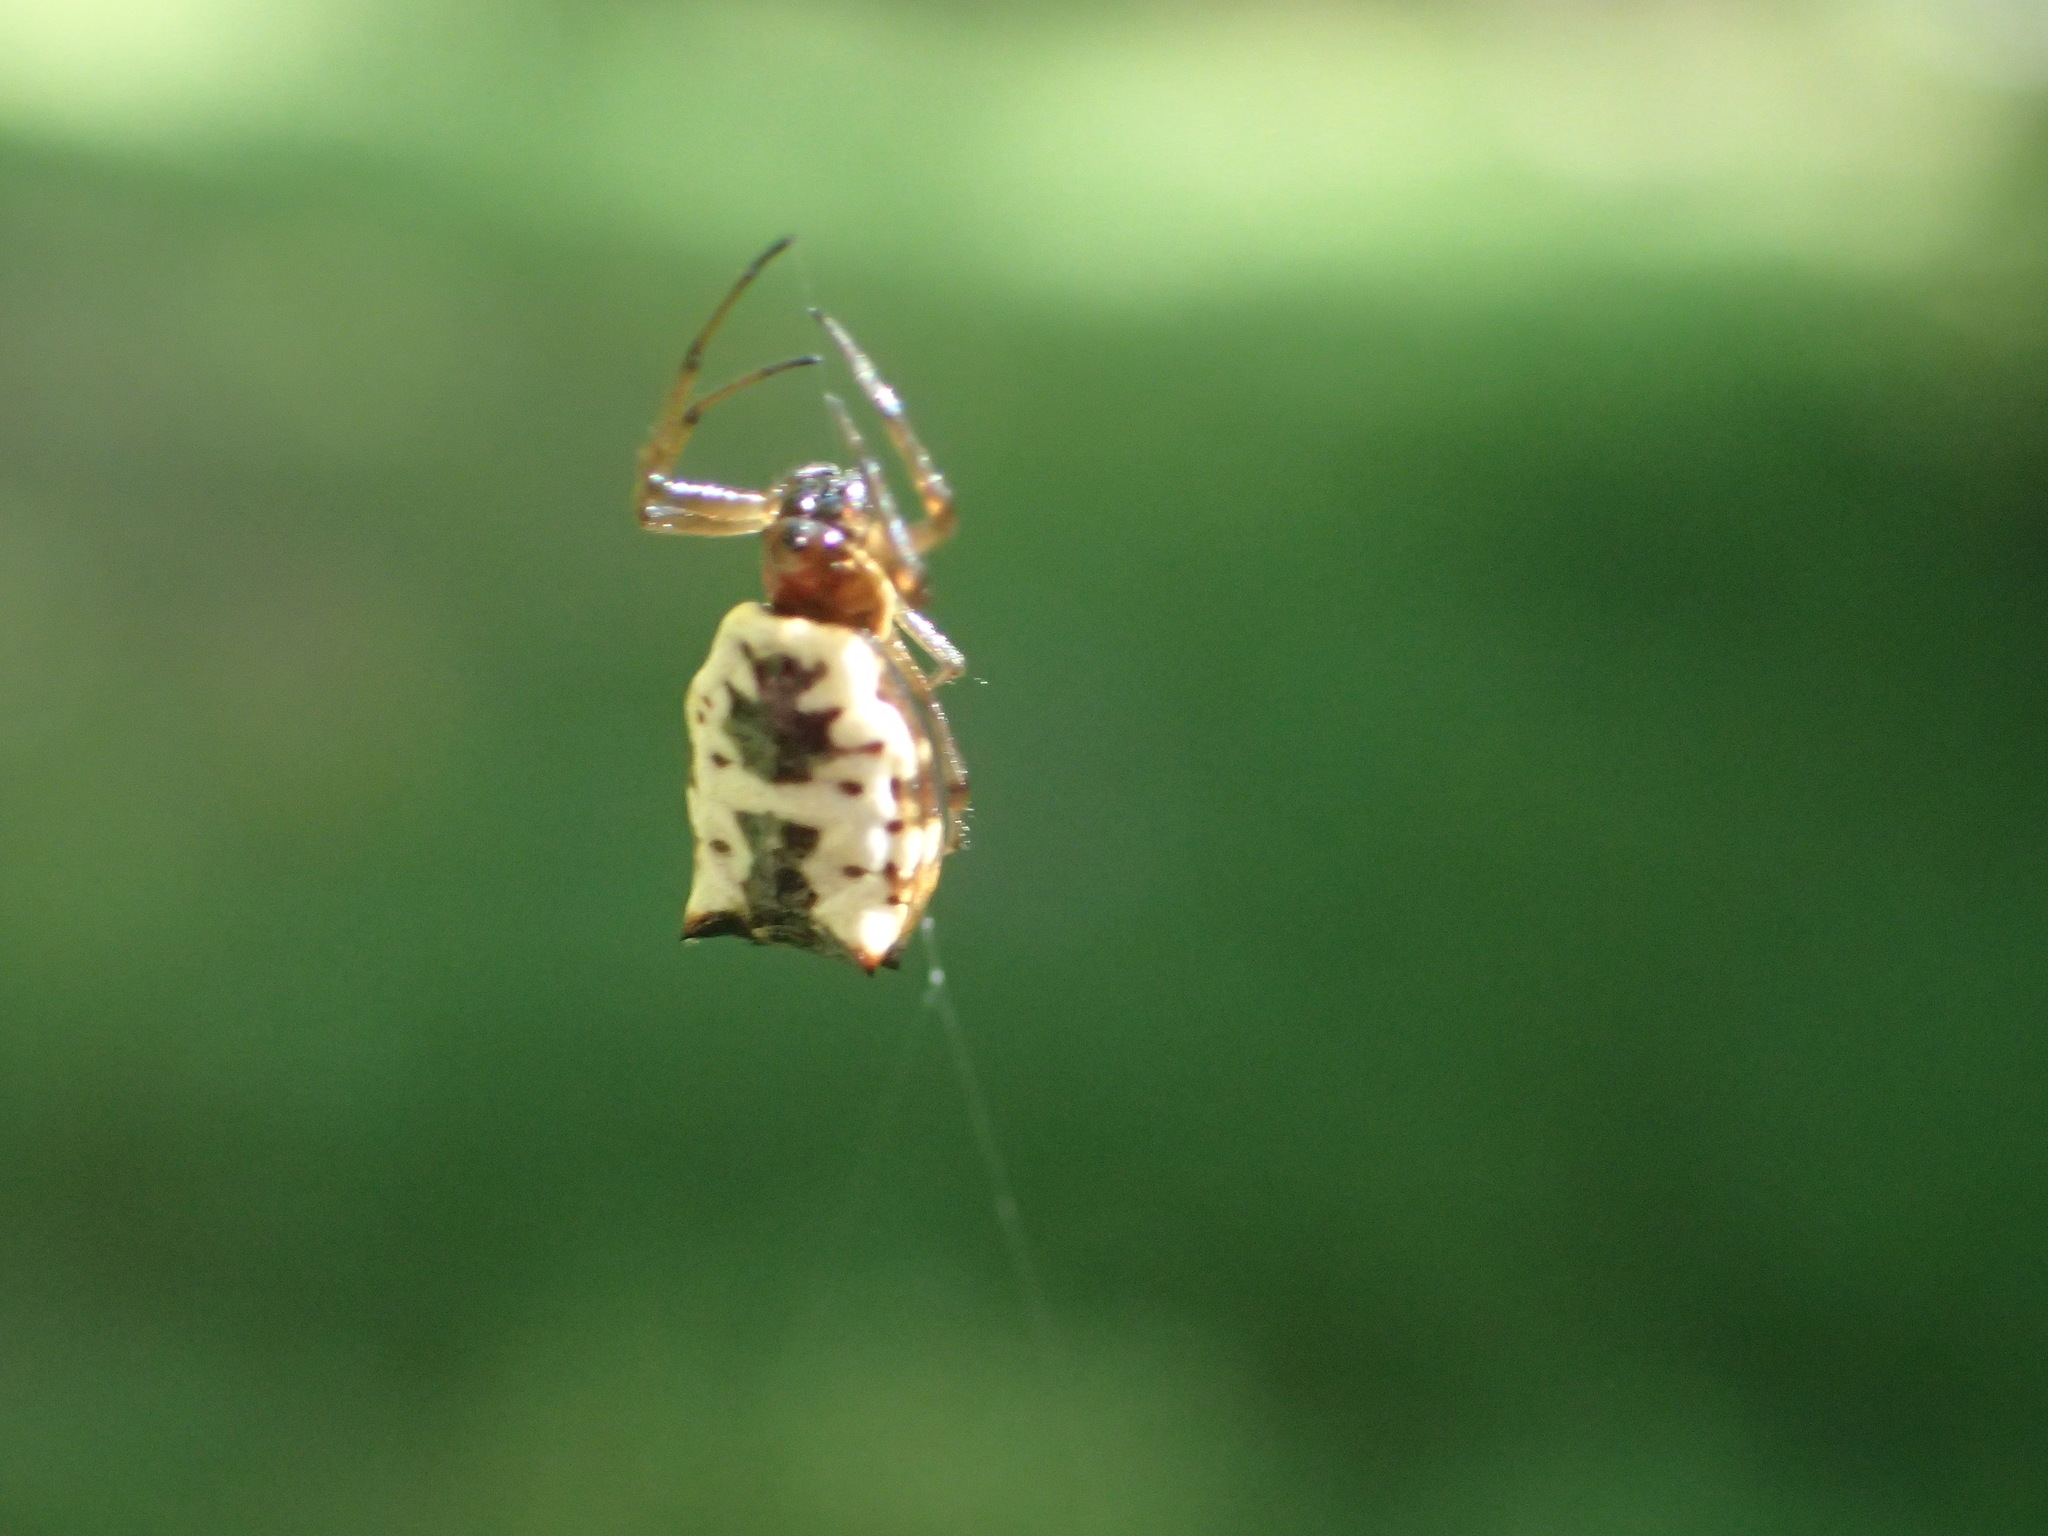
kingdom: Animalia
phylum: Arthropoda
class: Arachnida
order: Araneae
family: Araneidae
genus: Micrathena
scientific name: Micrathena mitrata
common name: Orb weavers
